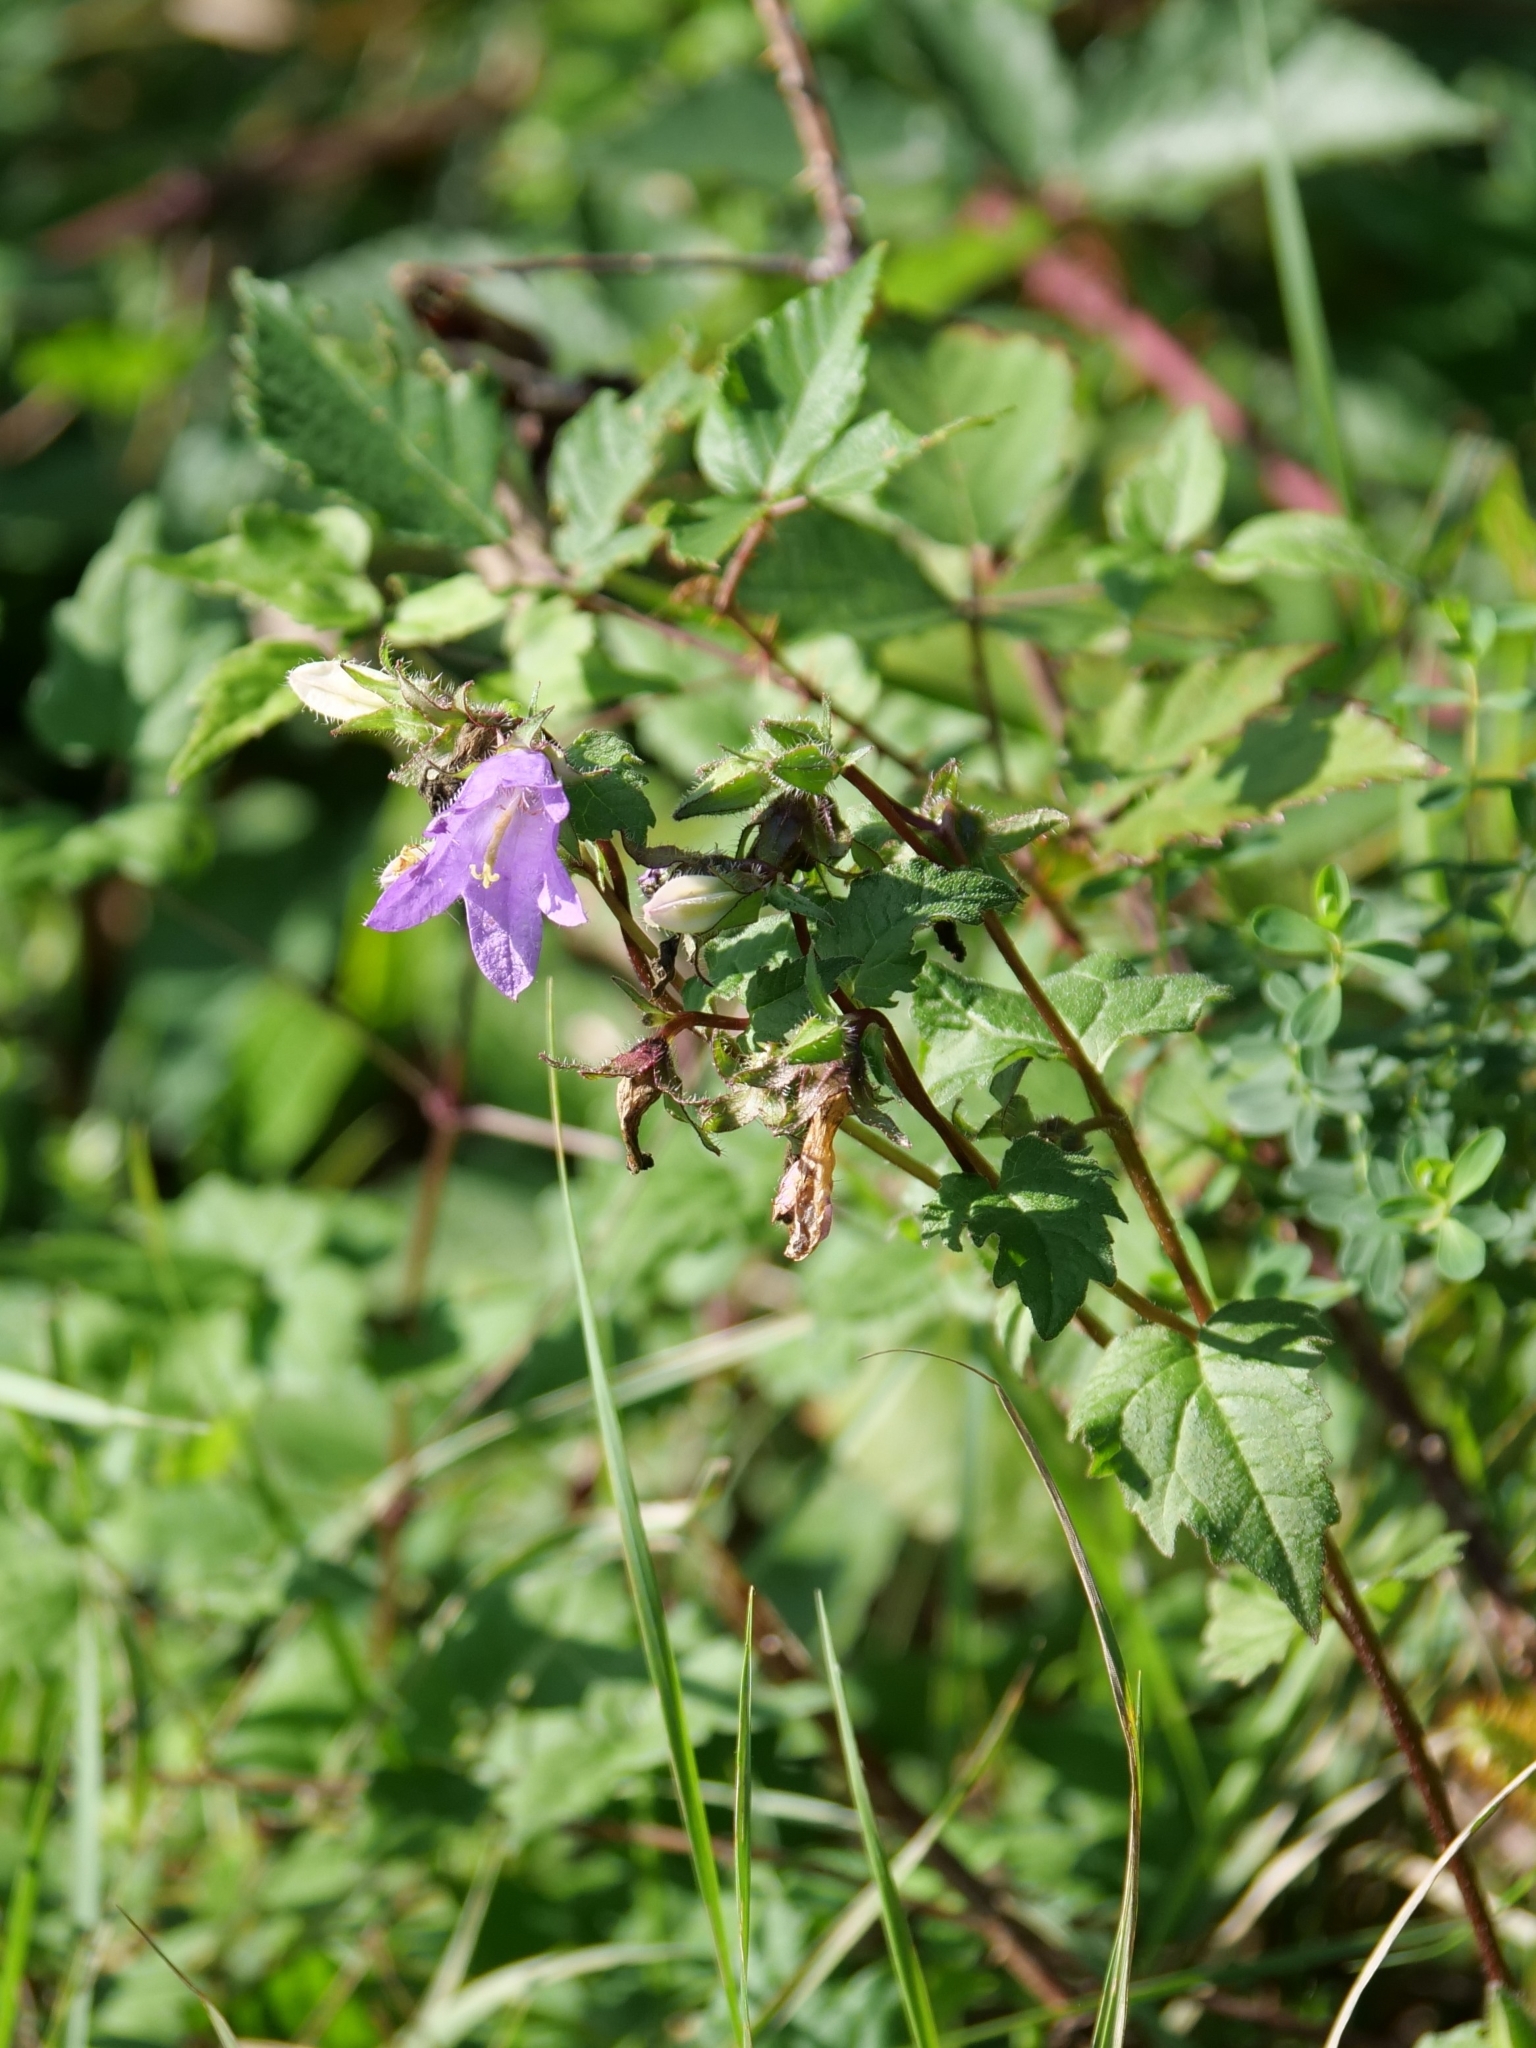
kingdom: Plantae
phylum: Tracheophyta
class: Magnoliopsida
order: Asterales
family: Campanulaceae
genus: Campanula
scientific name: Campanula trachelium
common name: Nettle-leaved bellflower
